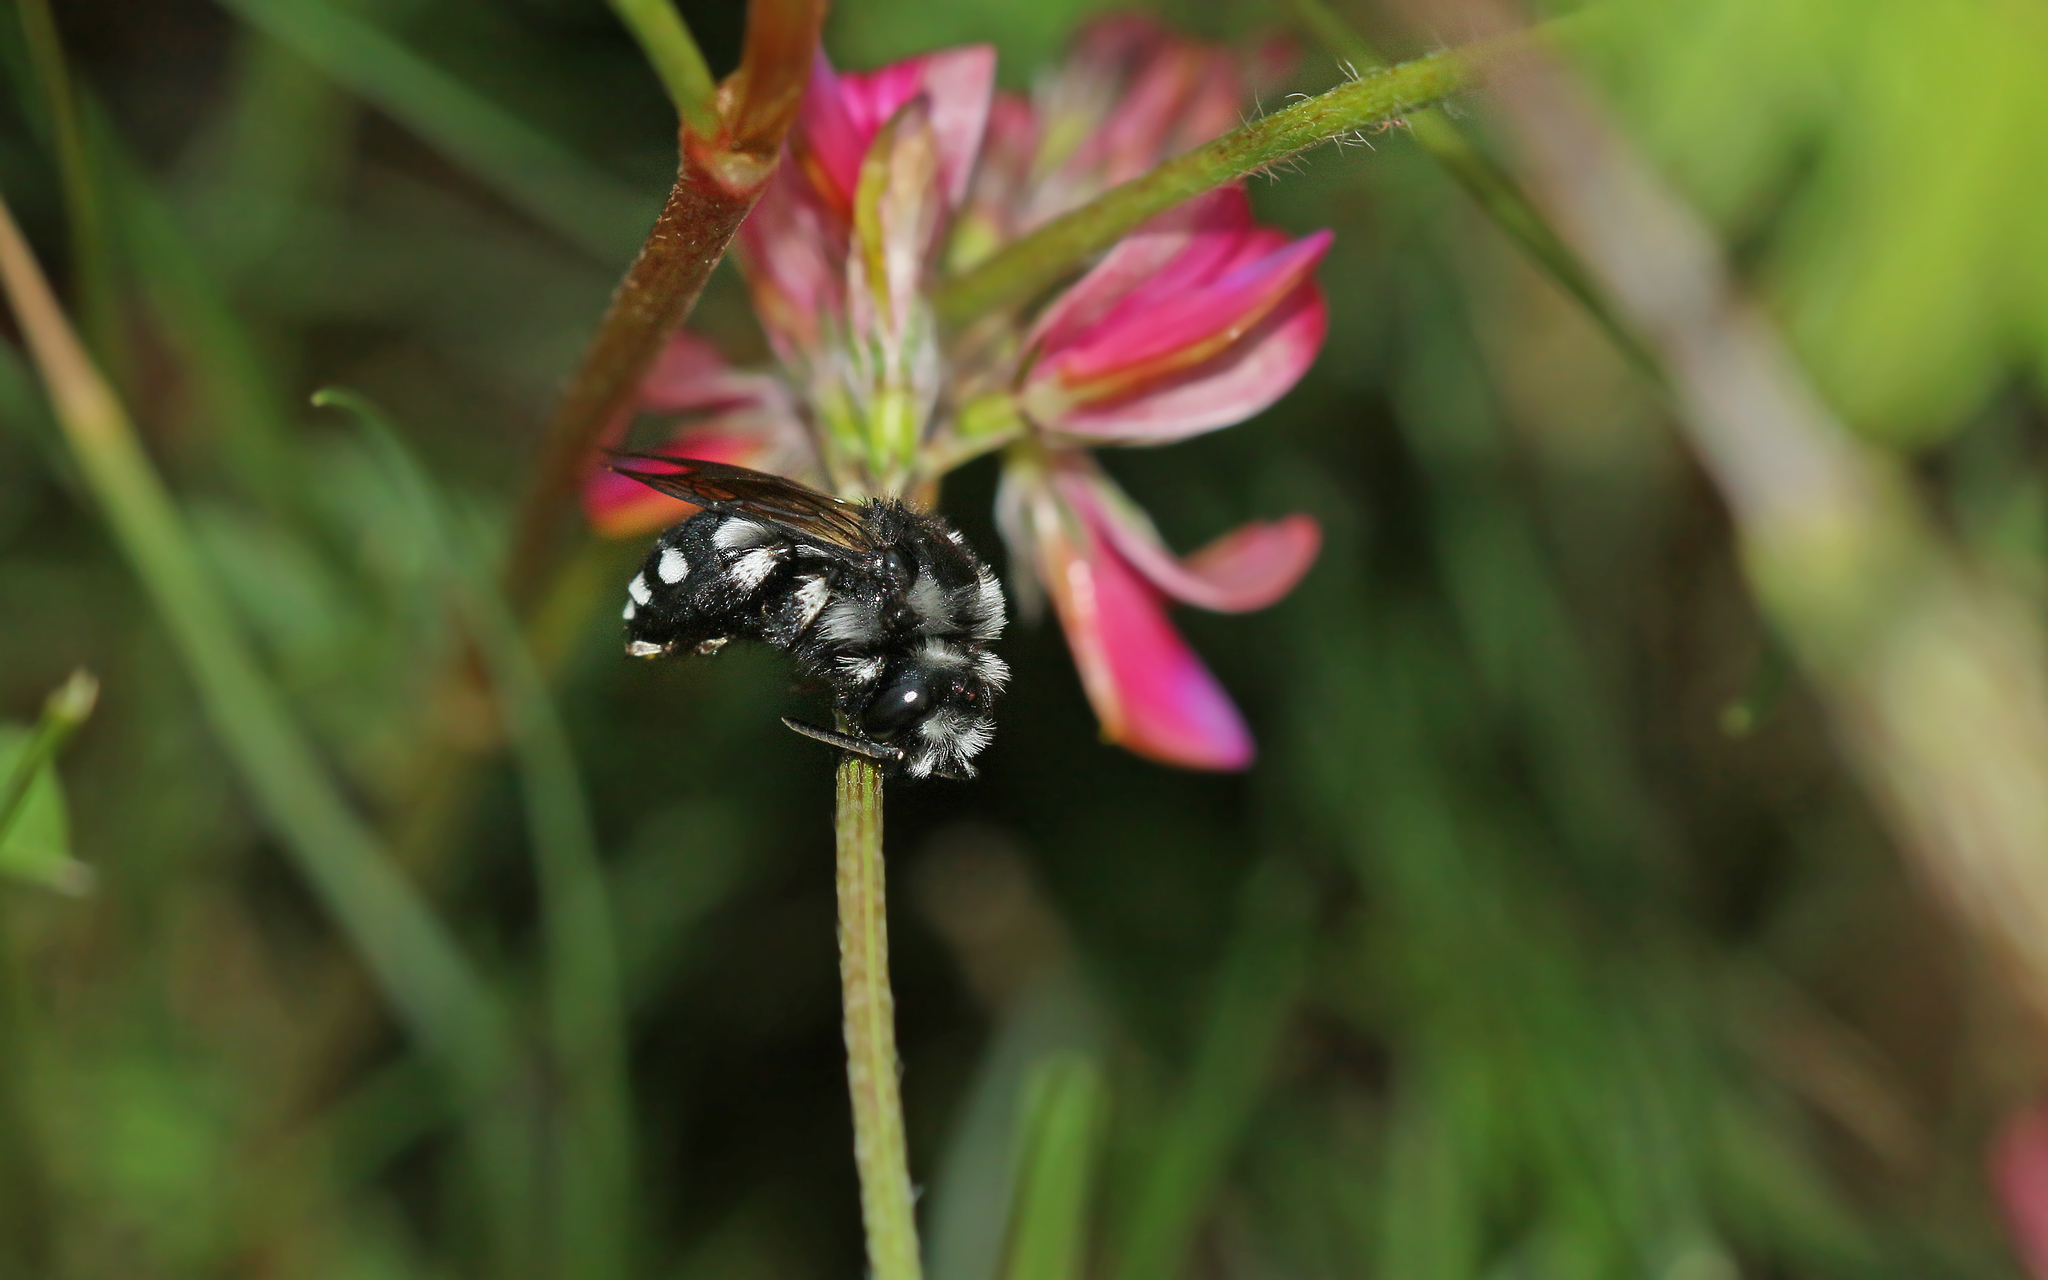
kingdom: Animalia
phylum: Arthropoda
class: Insecta
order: Hymenoptera
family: Apidae
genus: Melecta
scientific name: Melecta luctuosa
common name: Square-spotted mourning bee
